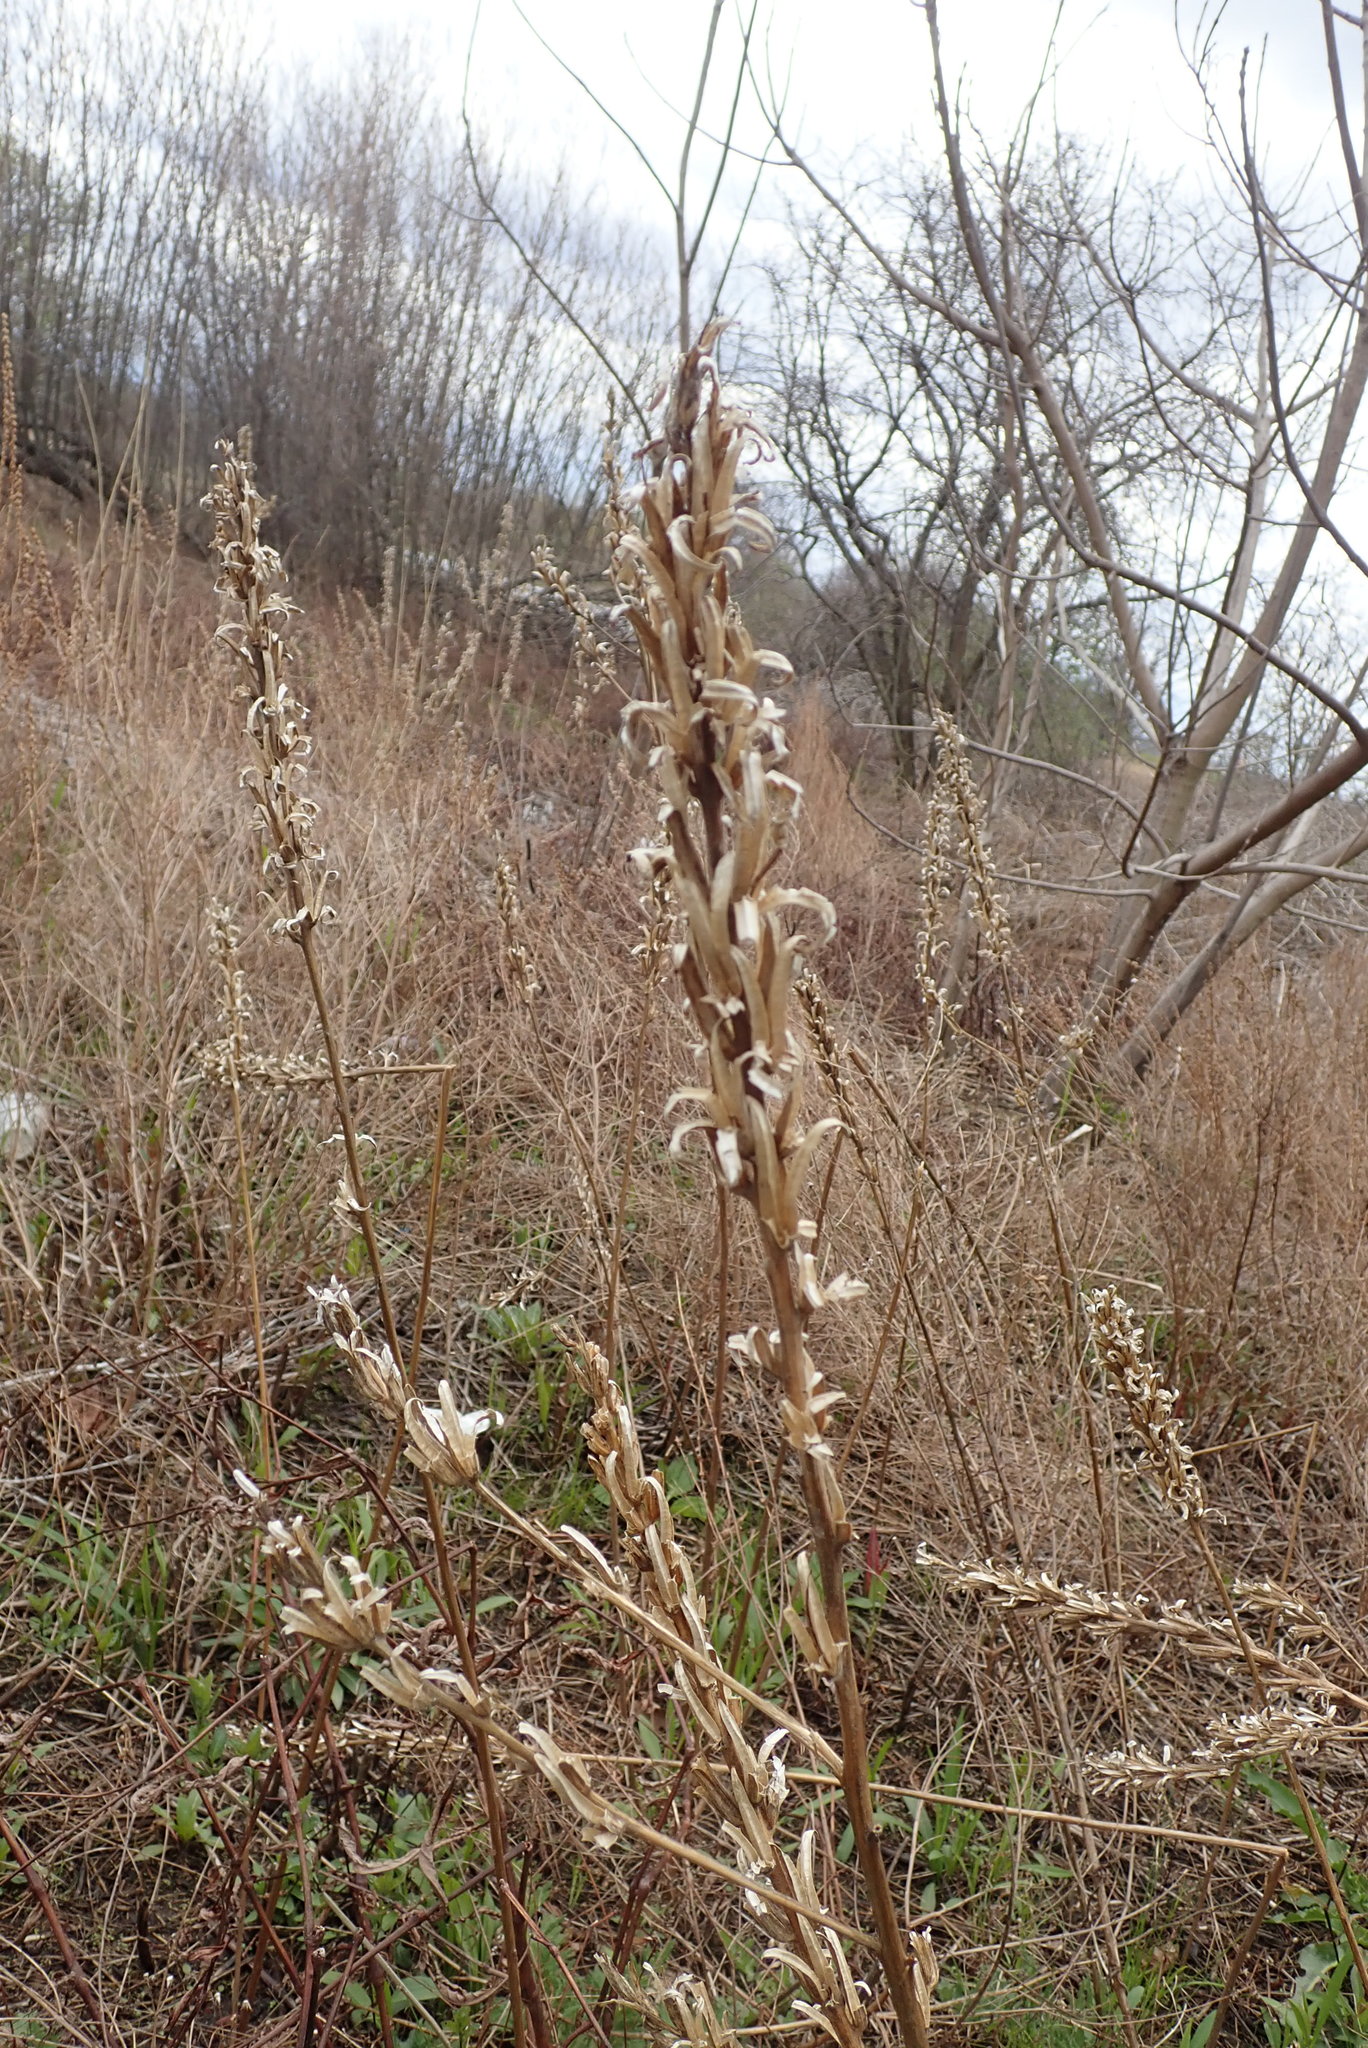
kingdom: Plantae
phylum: Tracheophyta
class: Magnoliopsida
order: Myrtales
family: Onagraceae
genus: Oenothera
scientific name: Oenothera biennis
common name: Common evening-primrose
